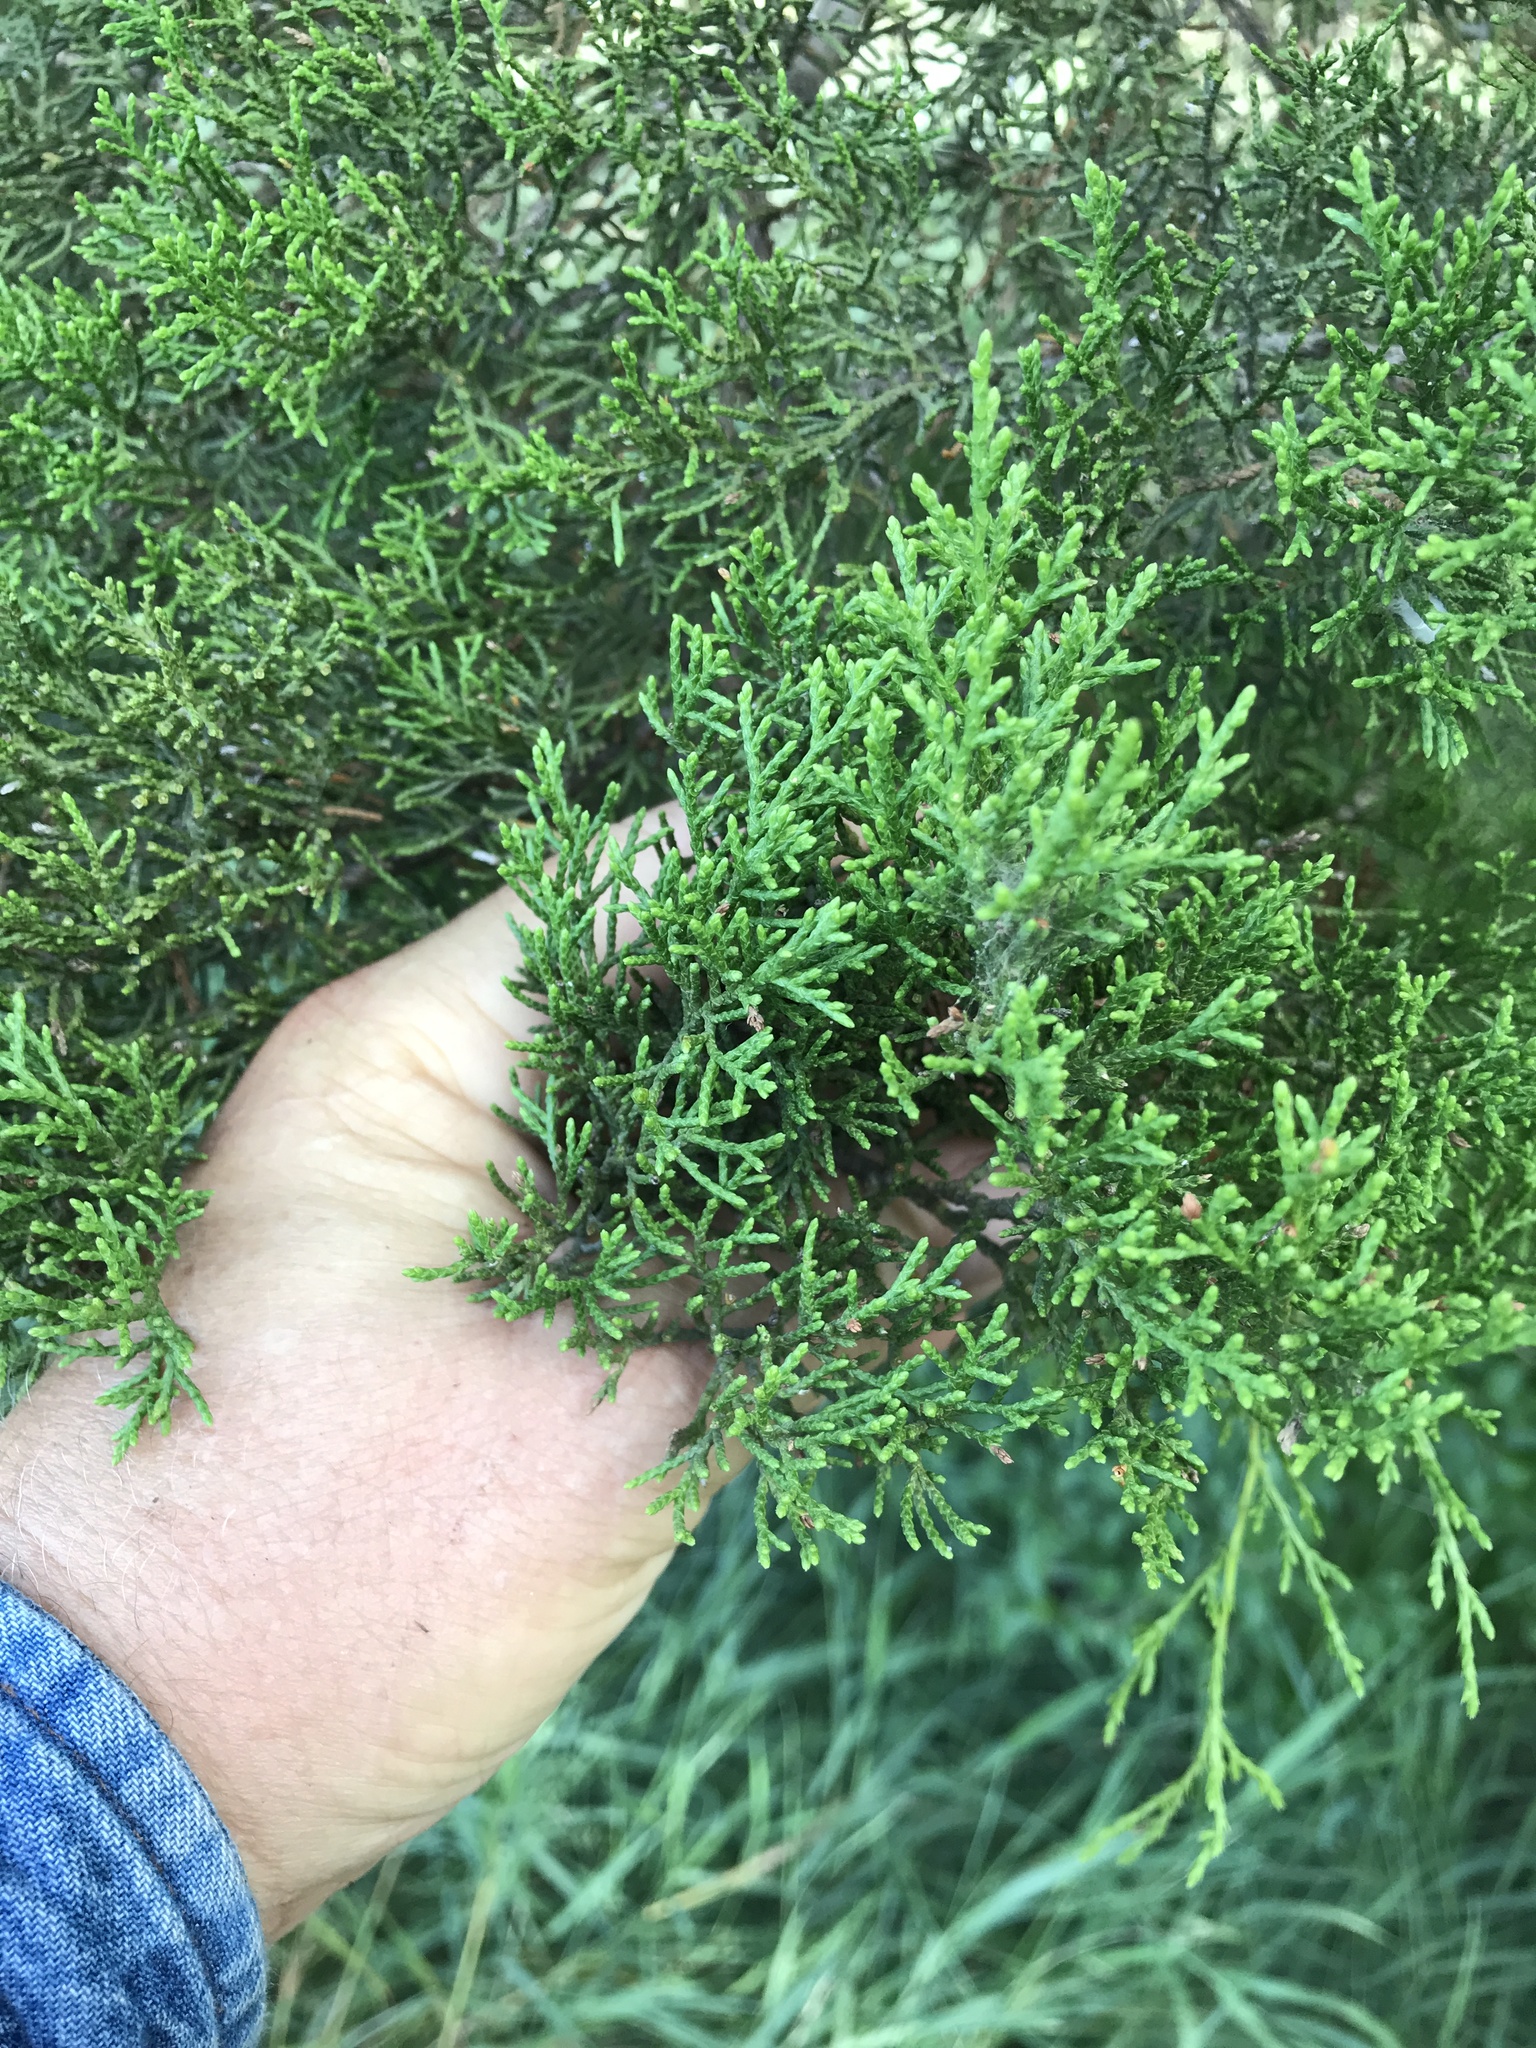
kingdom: Plantae
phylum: Tracheophyta
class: Pinopsida
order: Pinales
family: Cupressaceae
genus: Juniperus
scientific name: Juniperus ashei
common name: Mexican juniper
